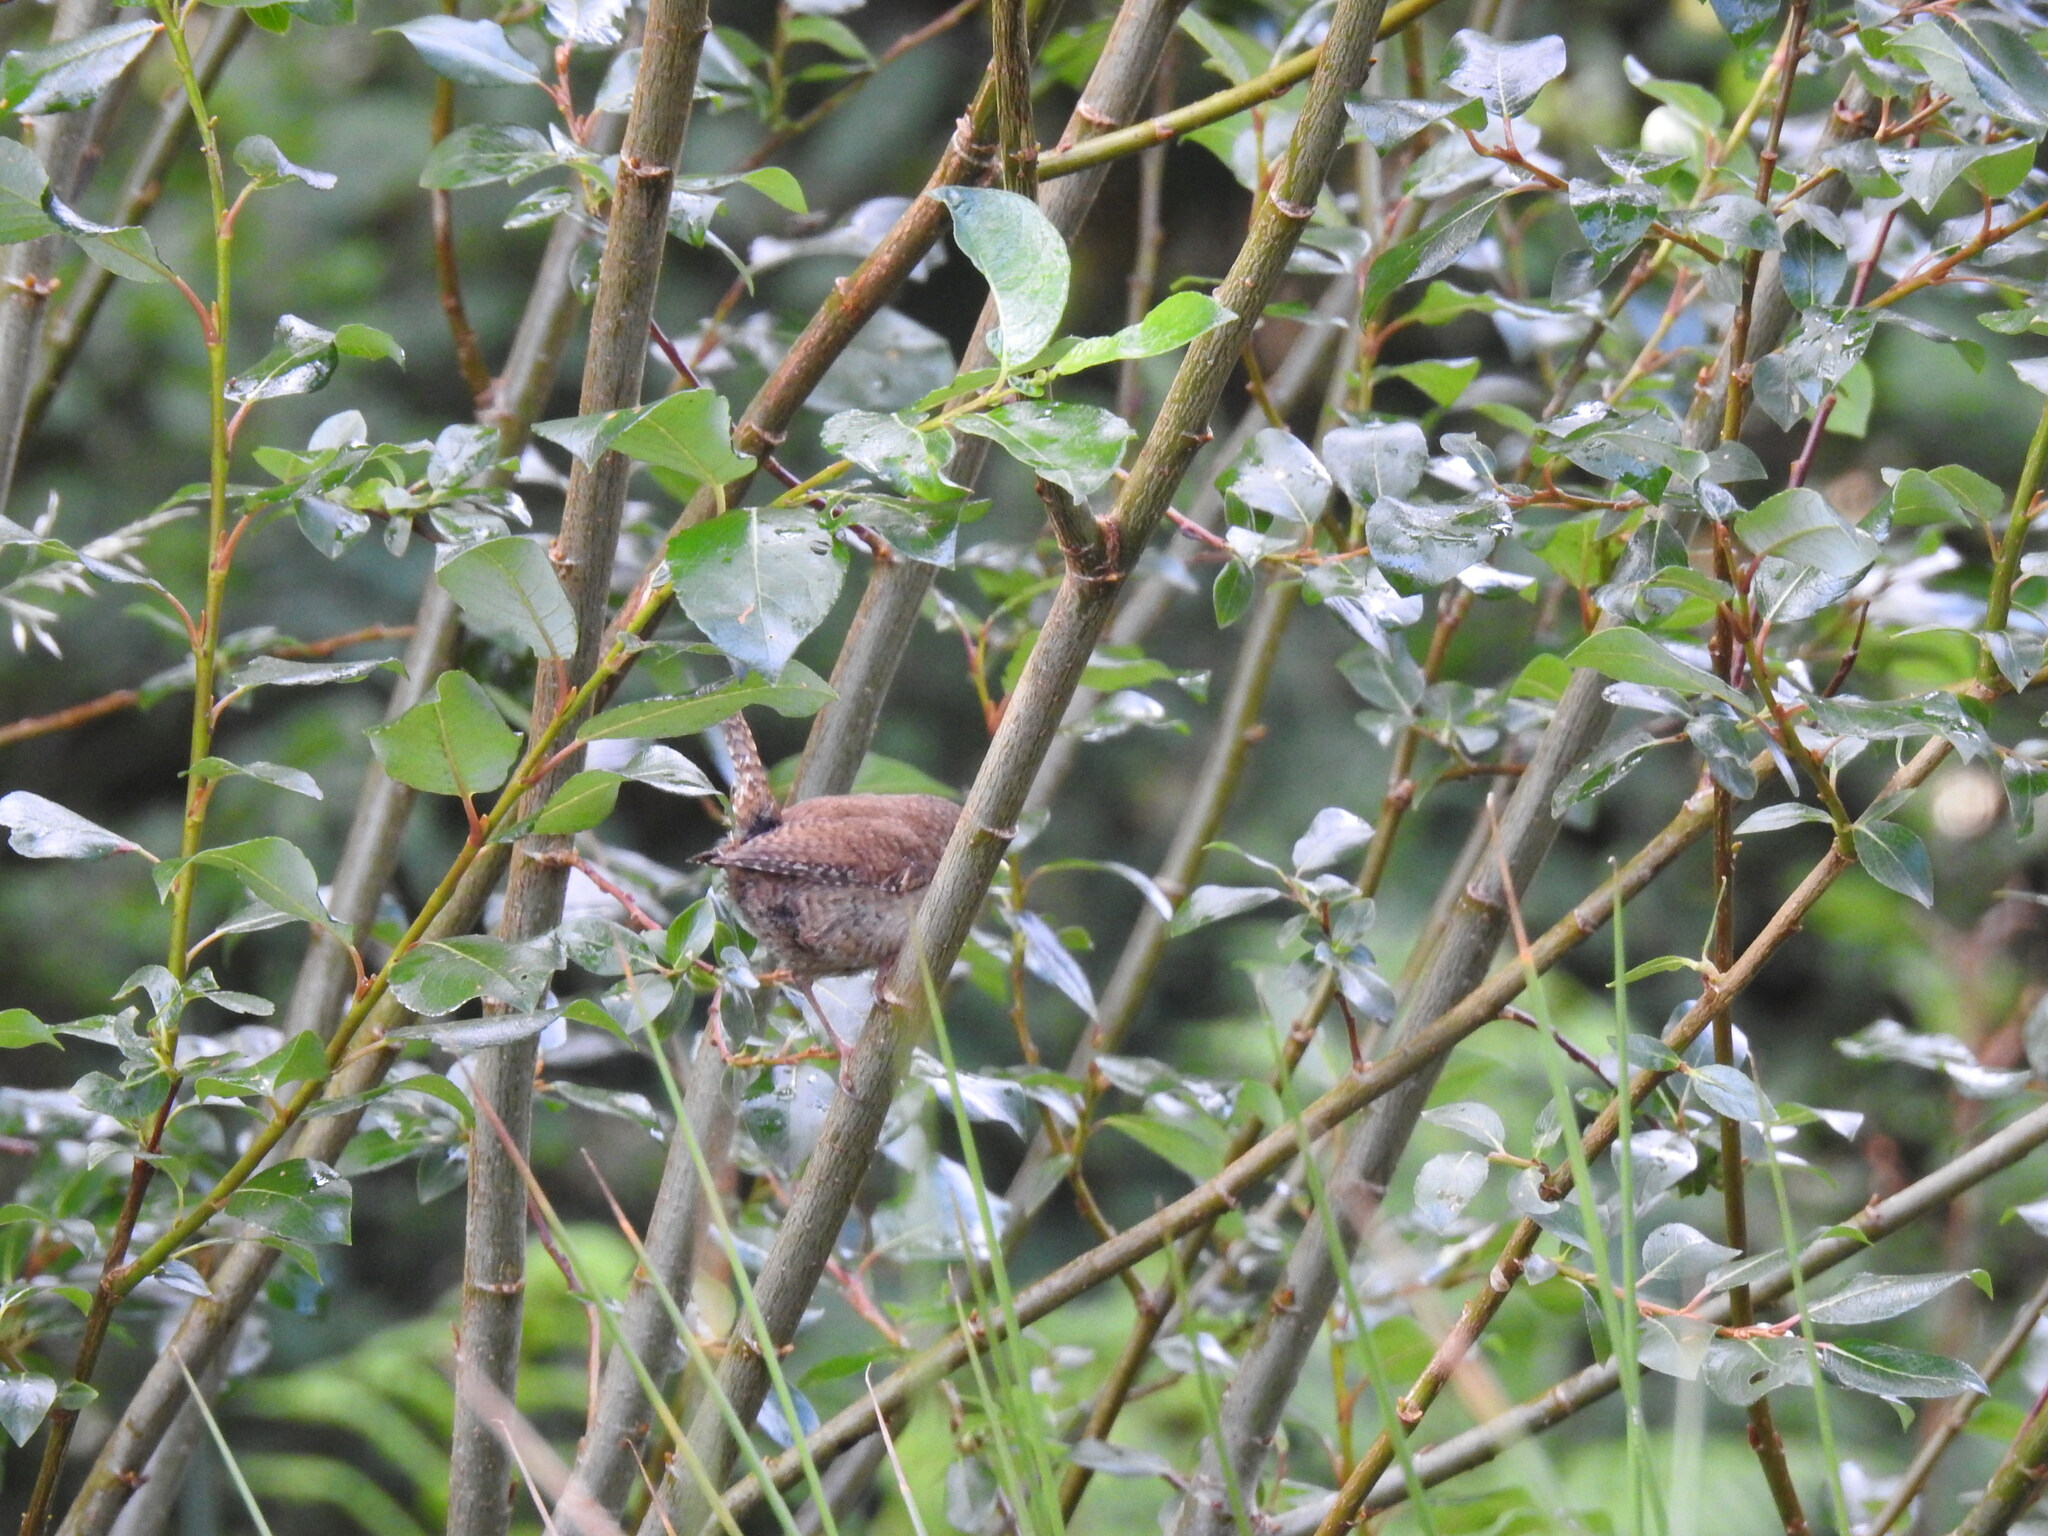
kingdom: Animalia
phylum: Chordata
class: Aves
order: Passeriformes
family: Troglodytidae
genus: Troglodytes
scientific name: Troglodytes troglodytes
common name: Eurasian wren
